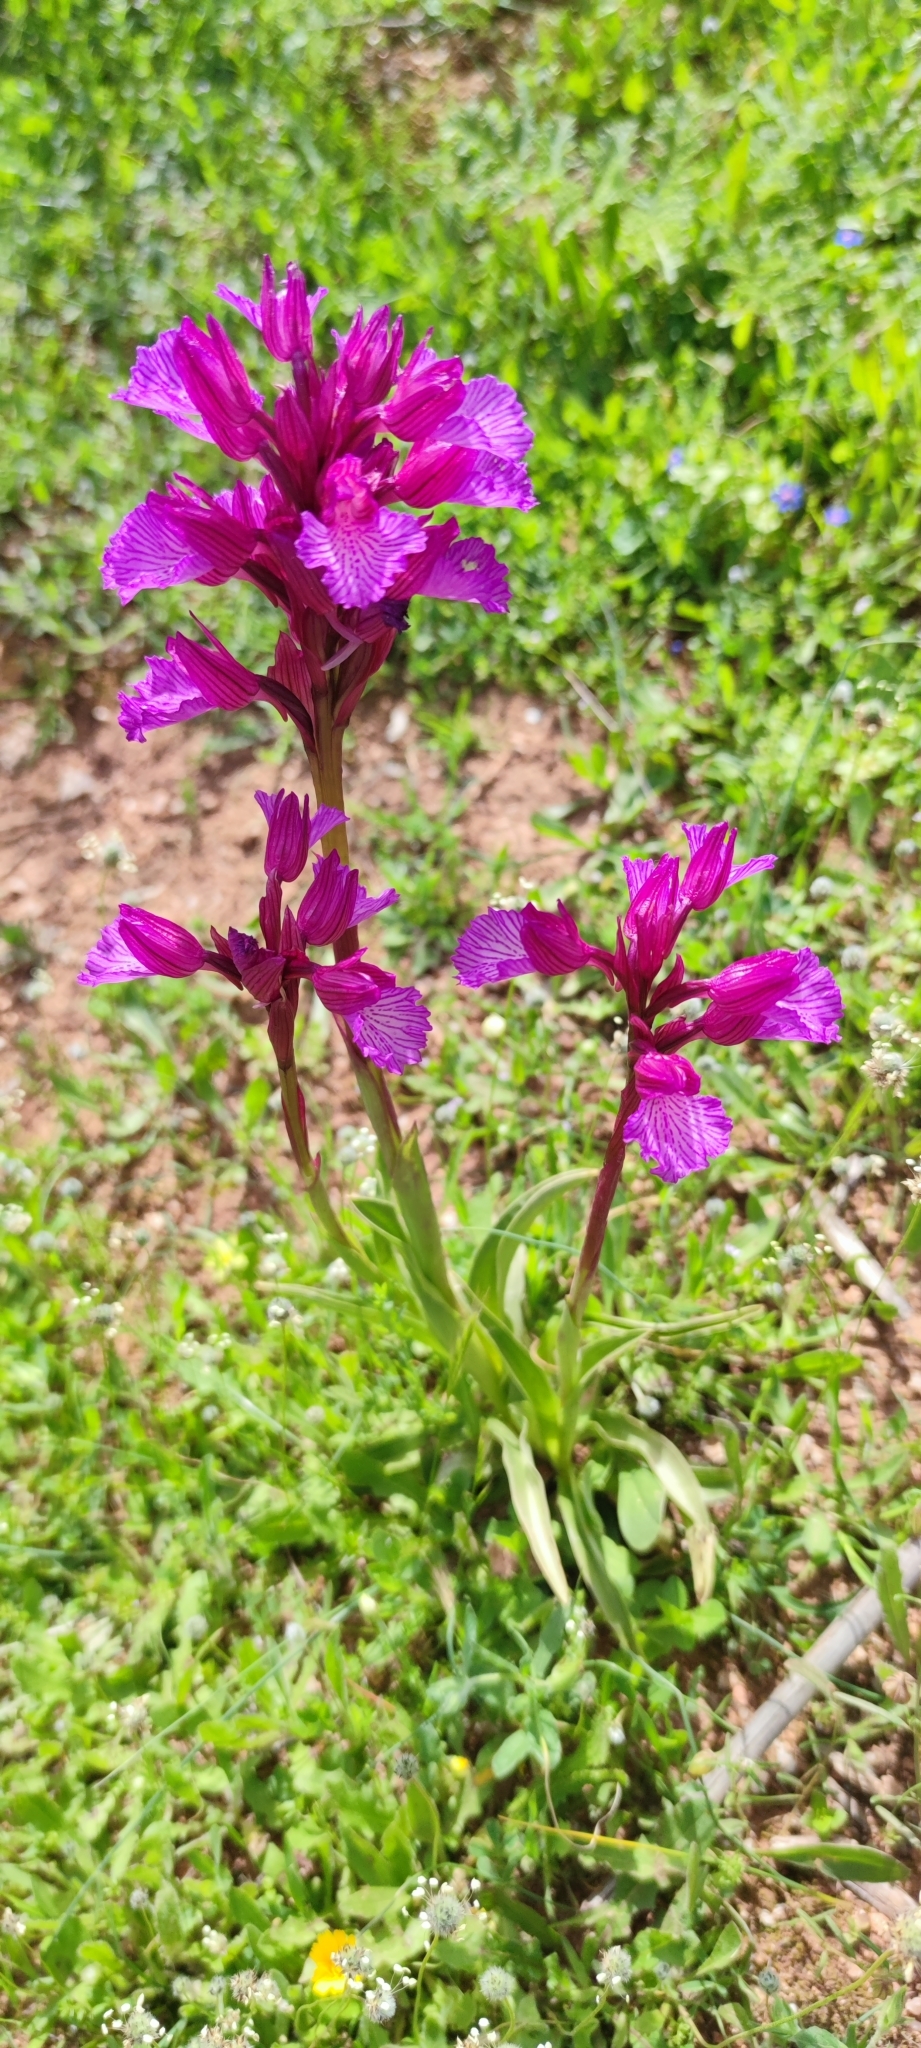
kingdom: Plantae
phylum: Tracheophyta
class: Liliopsida
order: Asparagales
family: Orchidaceae
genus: Anacamptis
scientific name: Anacamptis papilionacea
